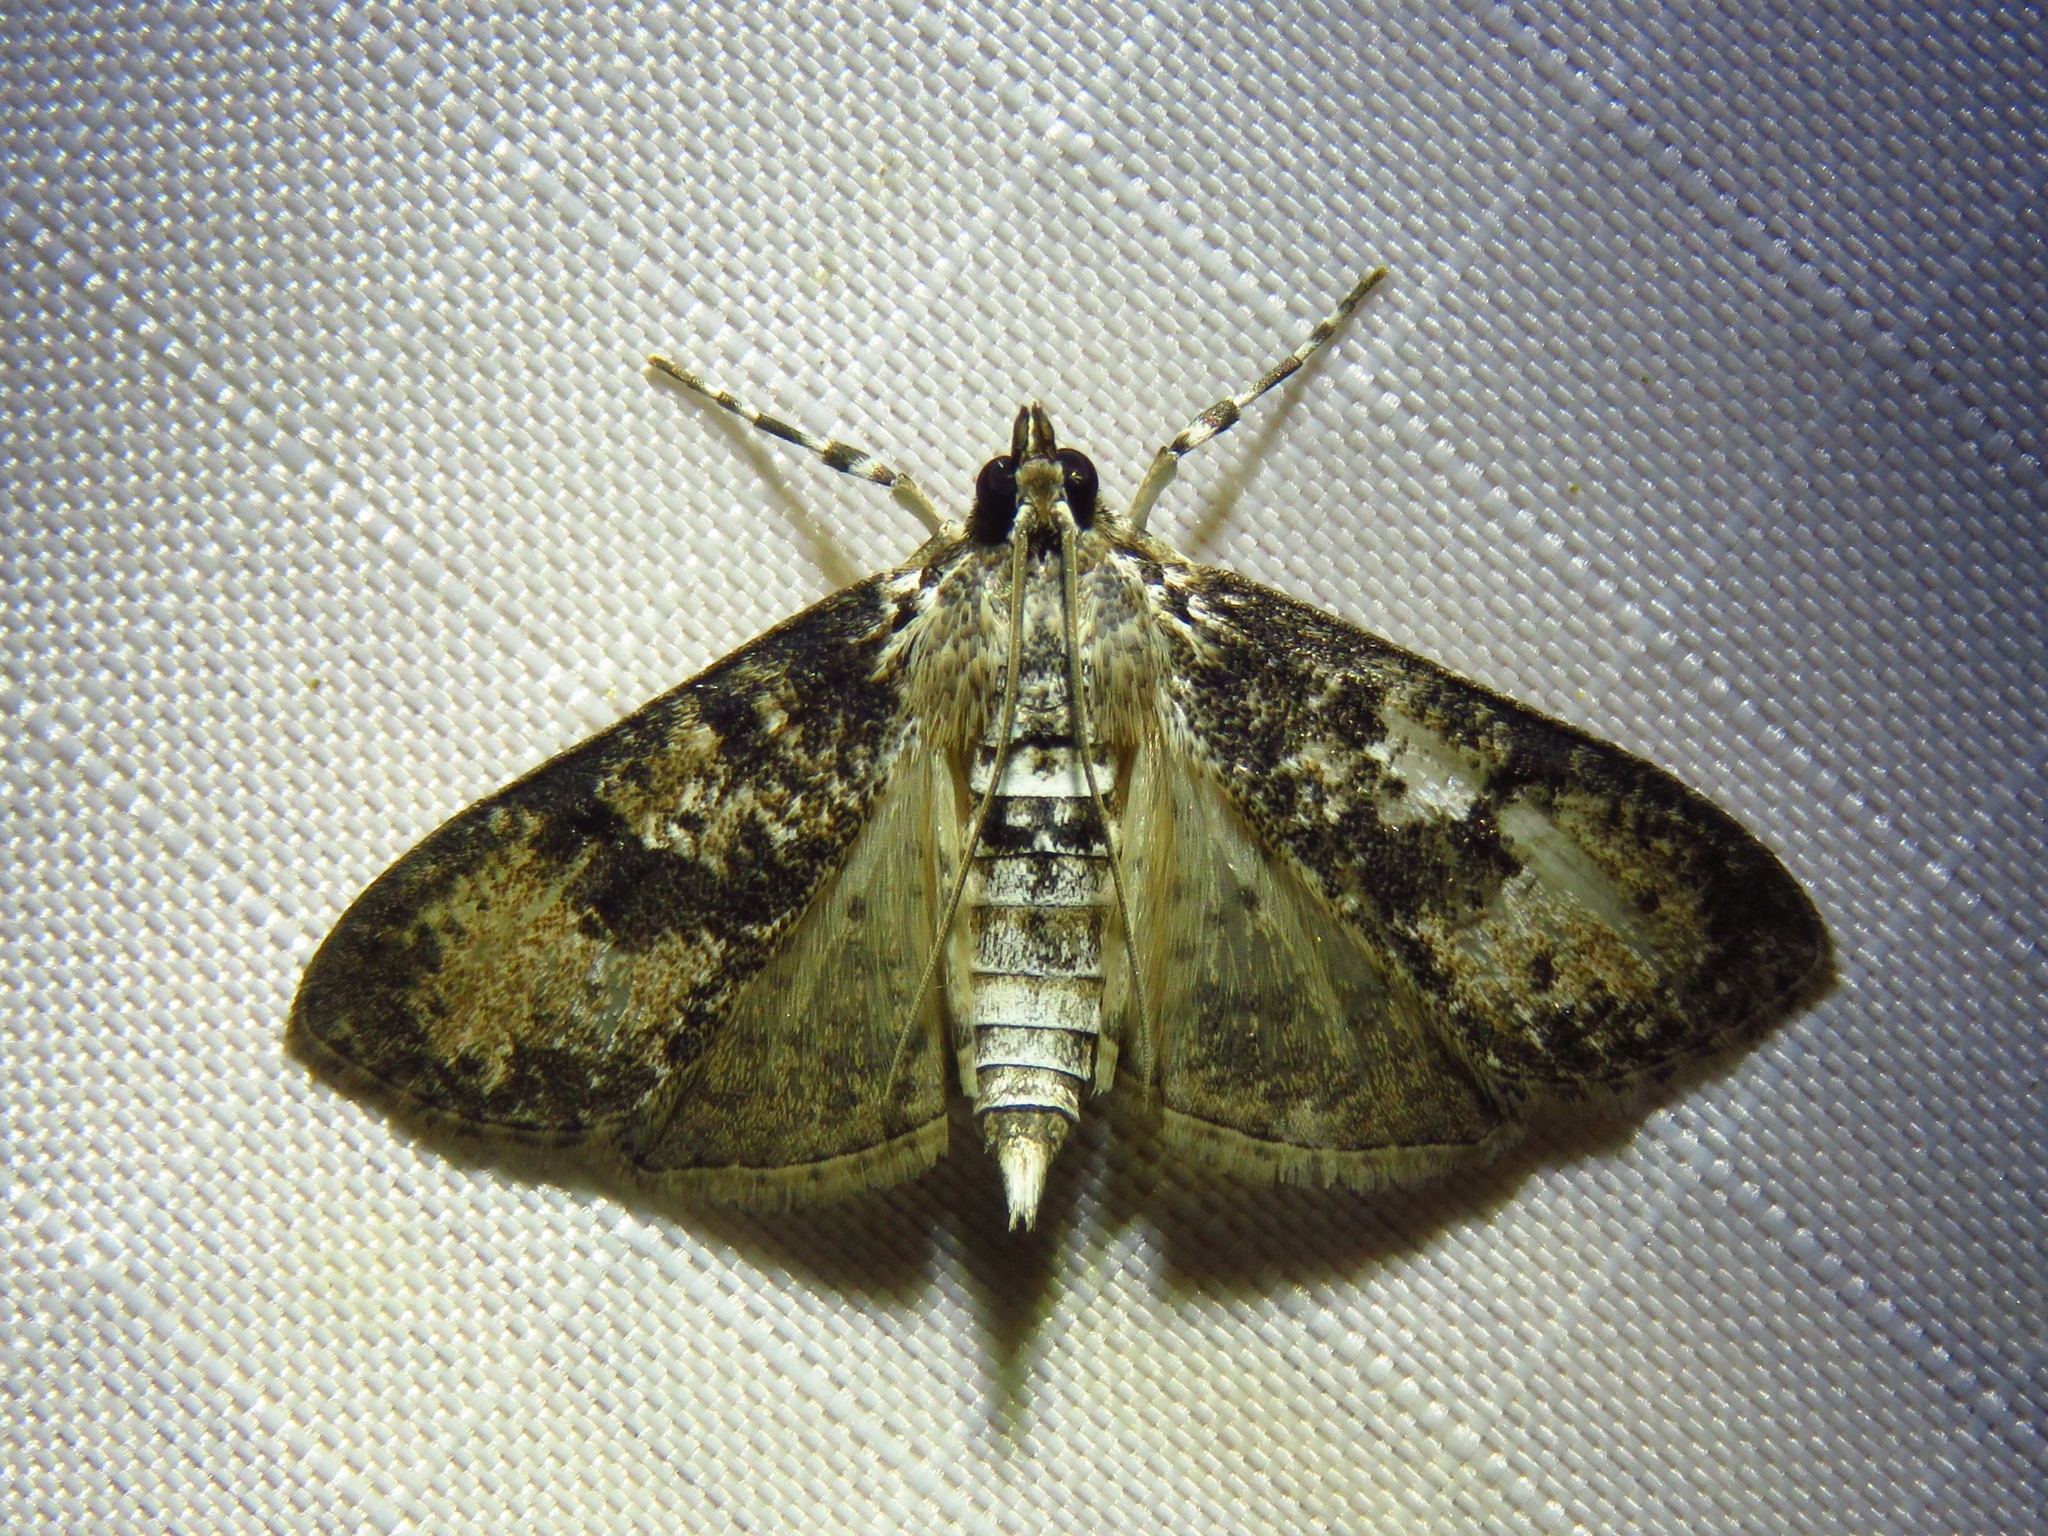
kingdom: Animalia
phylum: Arthropoda
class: Insecta
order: Lepidoptera
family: Crambidae
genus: Palpita
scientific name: Palpita magniferalis
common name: Splendid palpita moth
